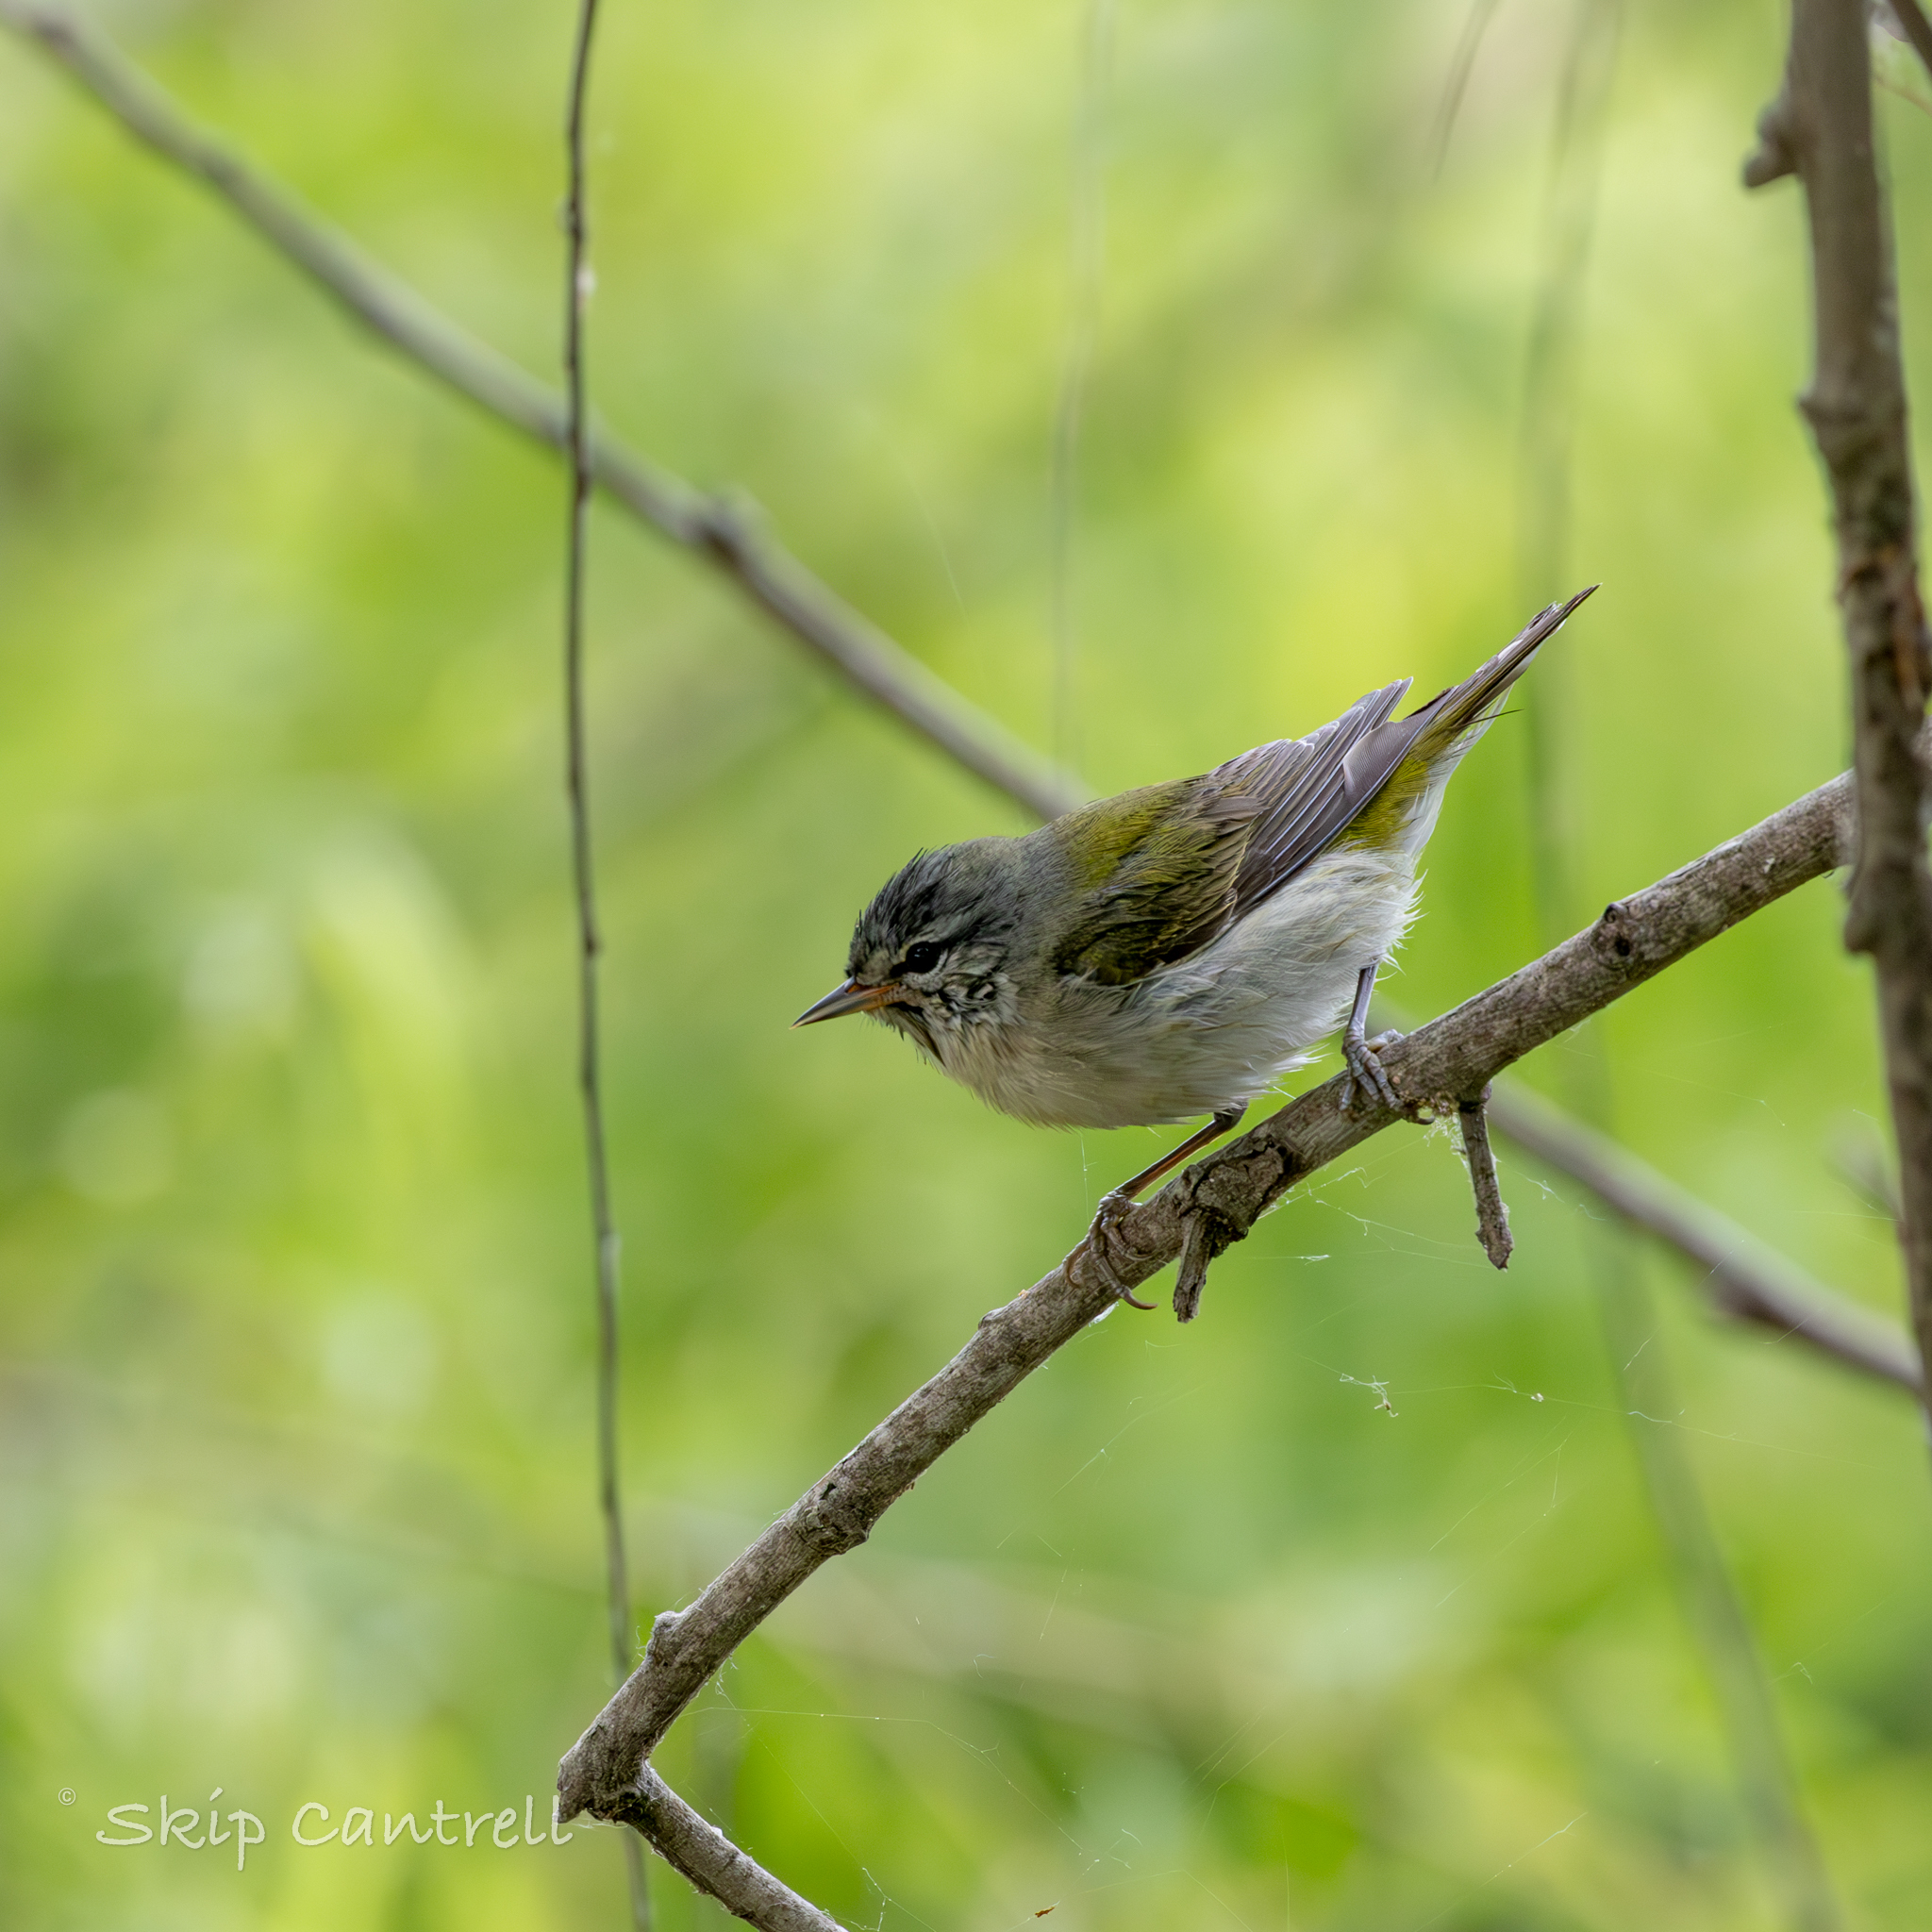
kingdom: Animalia
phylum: Chordata
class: Aves
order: Passeriformes
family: Parulidae
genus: Leiothlypis
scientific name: Leiothlypis peregrina
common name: Tennessee warbler
